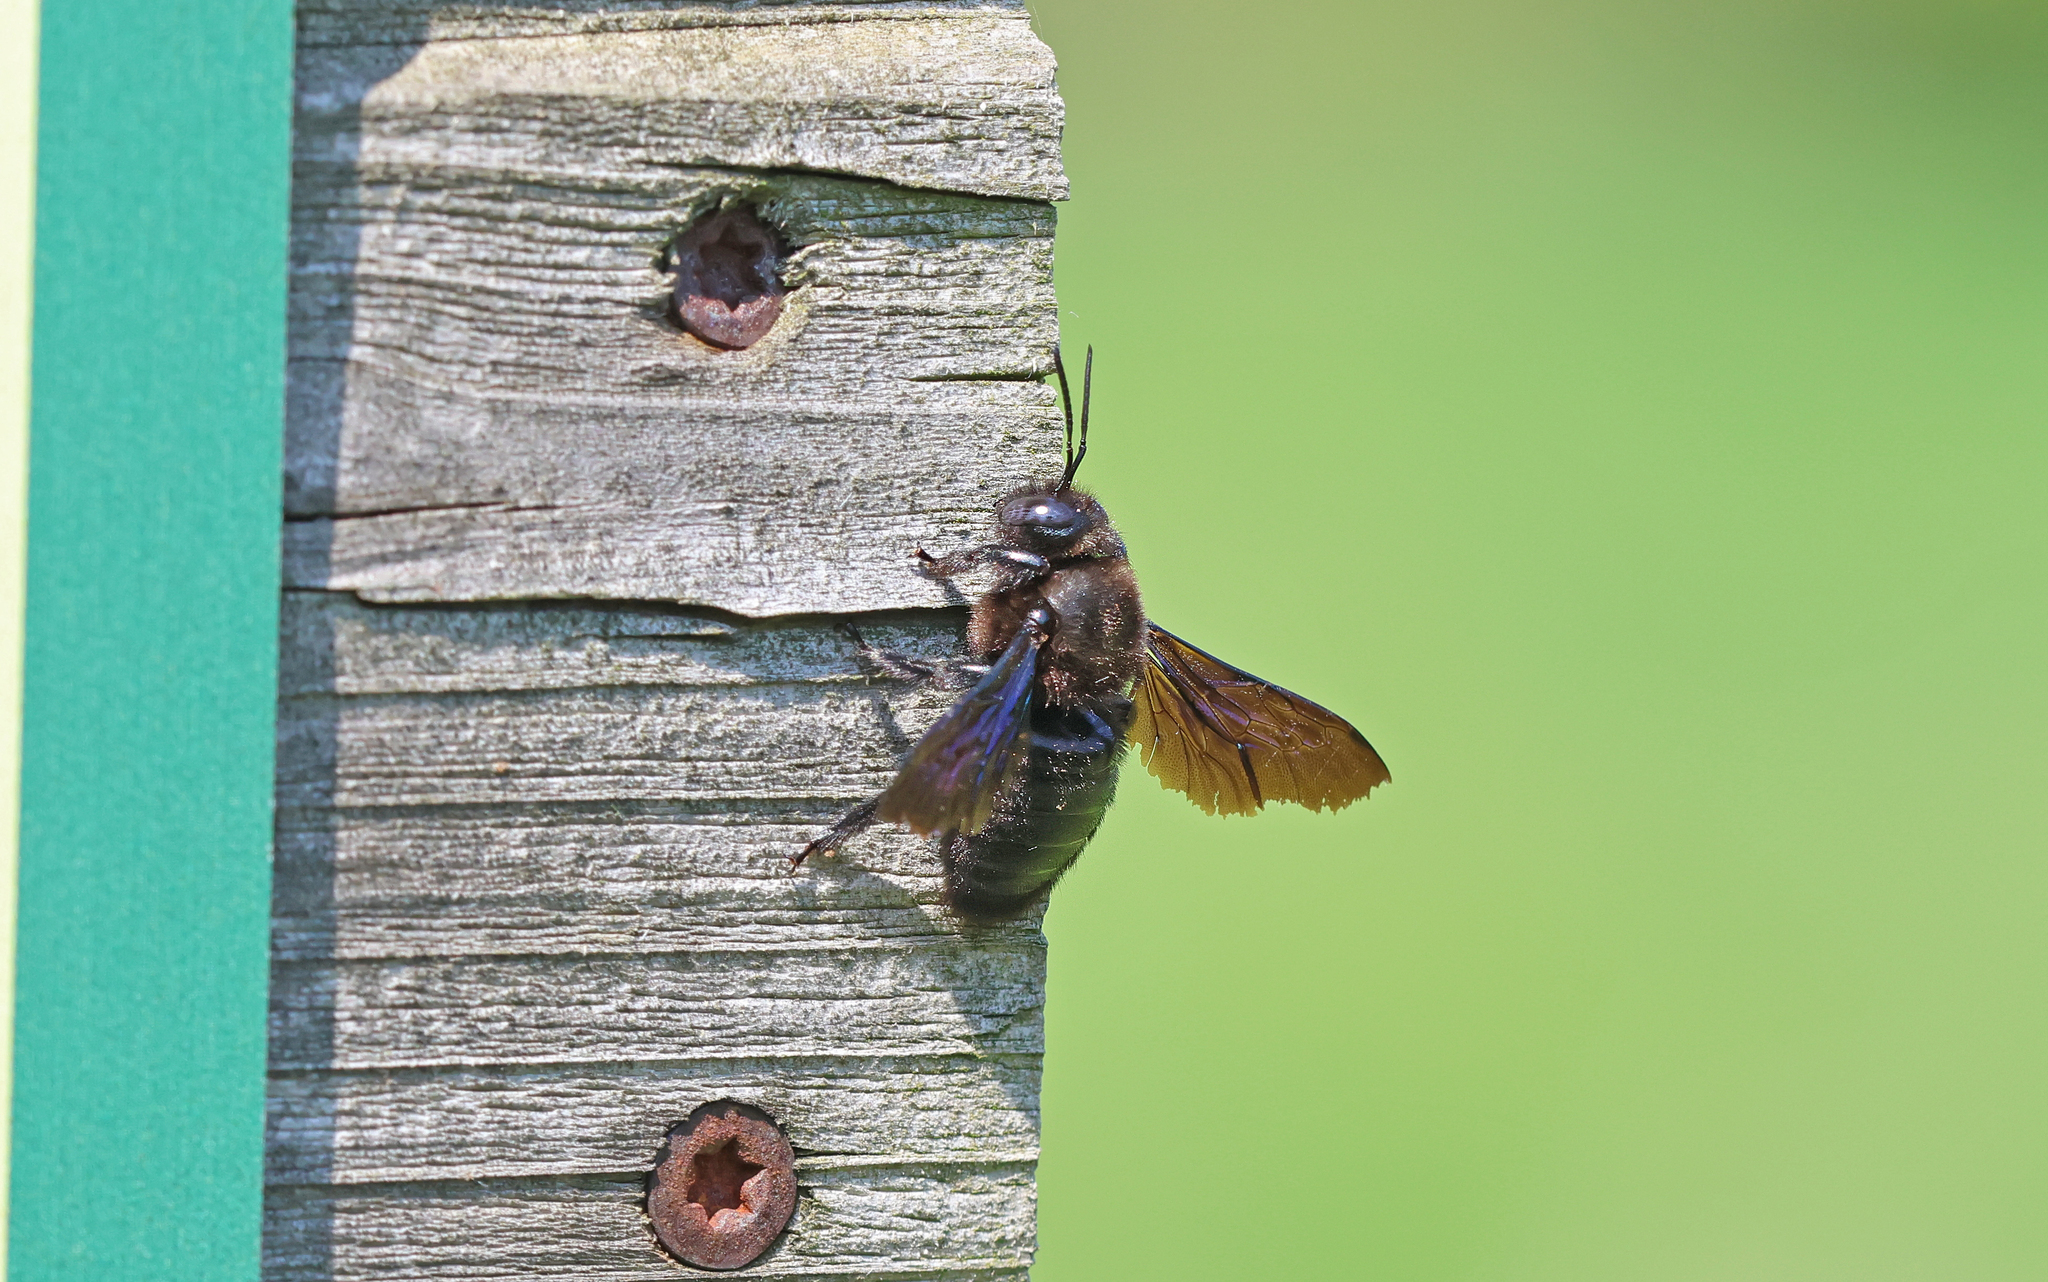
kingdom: Animalia
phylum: Arthropoda
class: Insecta
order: Hymenoptera
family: Apidae
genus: Xylocopa
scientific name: Xylocopa valga
